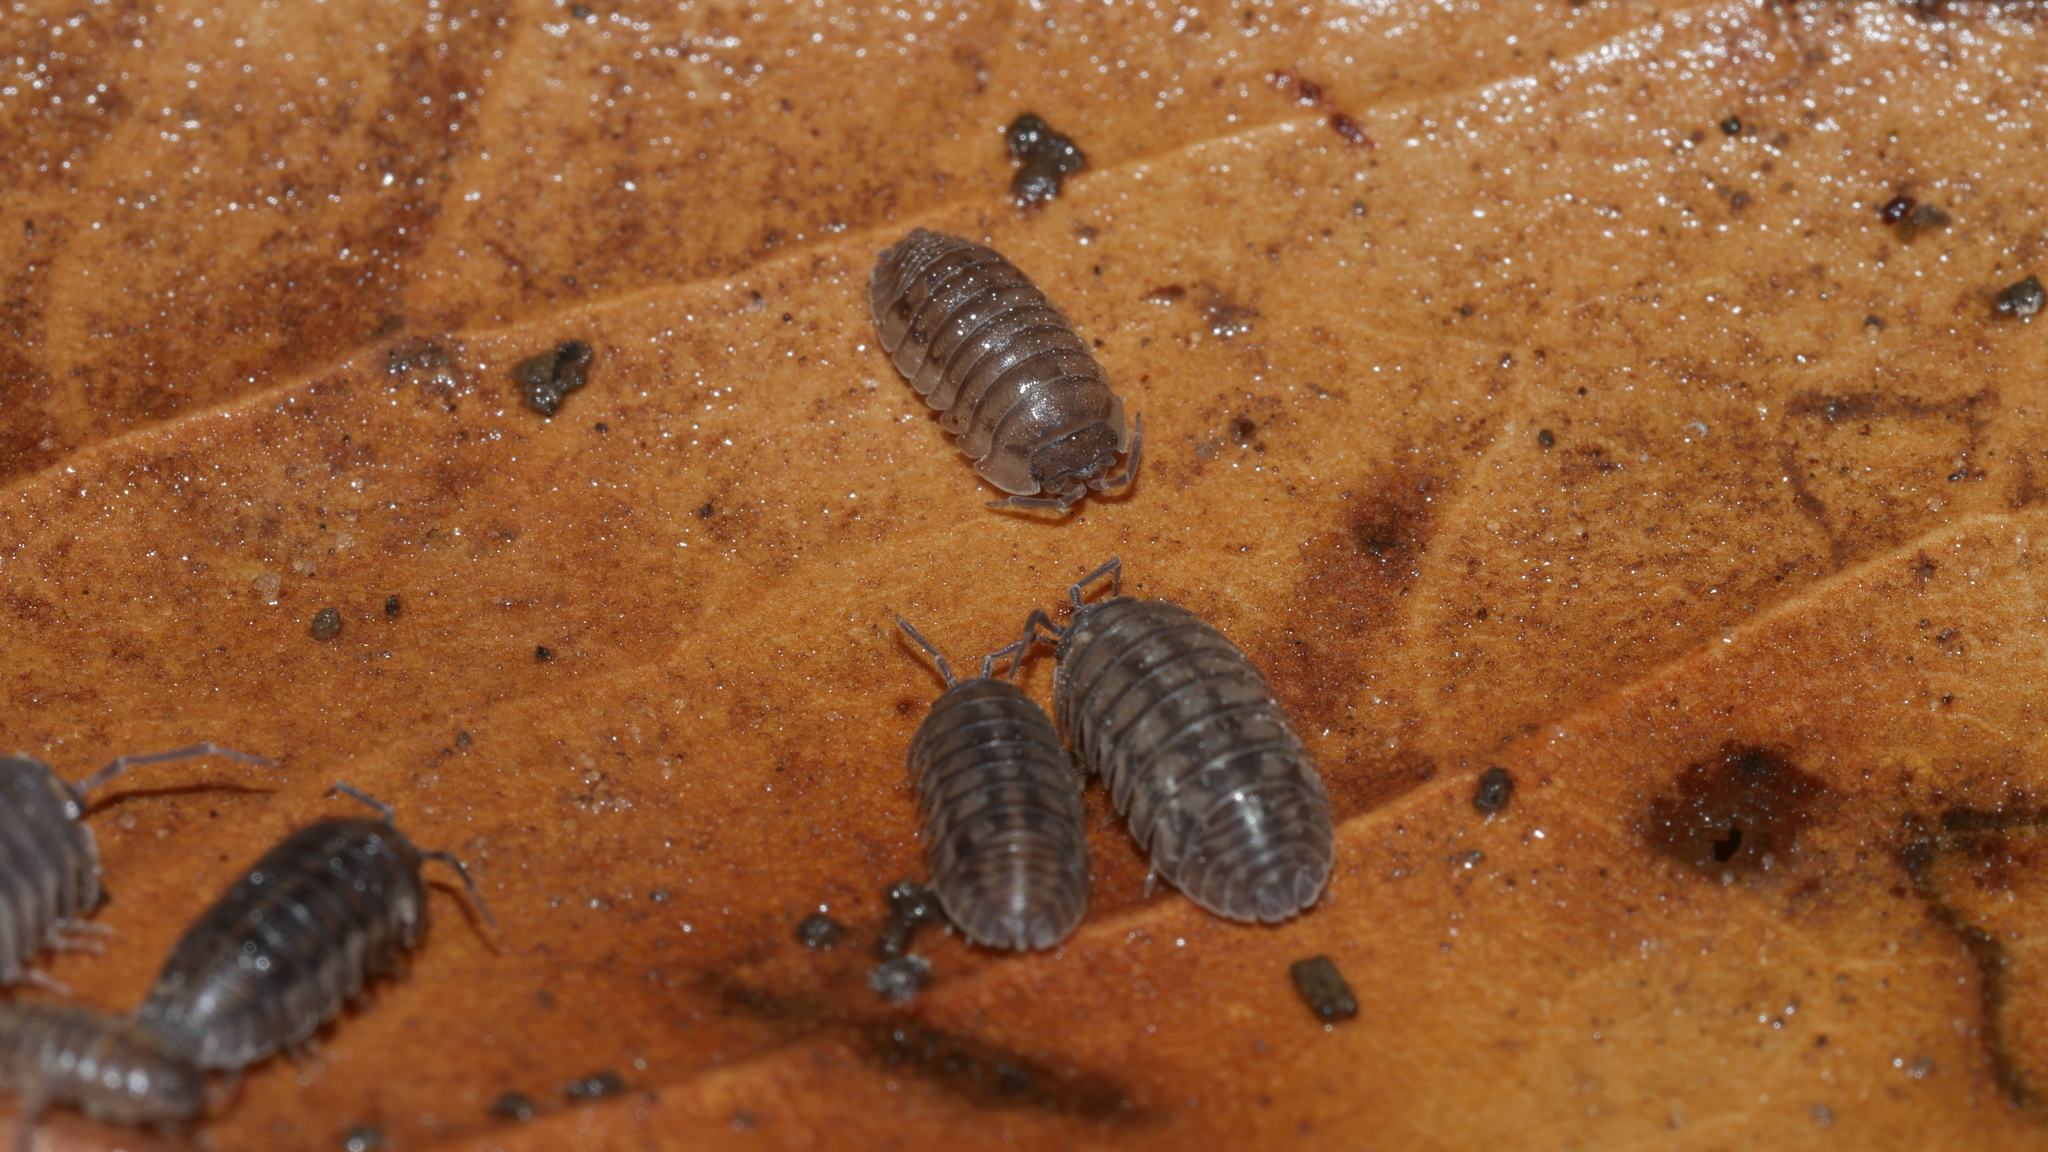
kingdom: Animalia
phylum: Arthropoda
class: Malacostraca
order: Isopoda
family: Armadillidiidae
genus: Armadillidium
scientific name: Armadillidium nasatum
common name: Isopod
